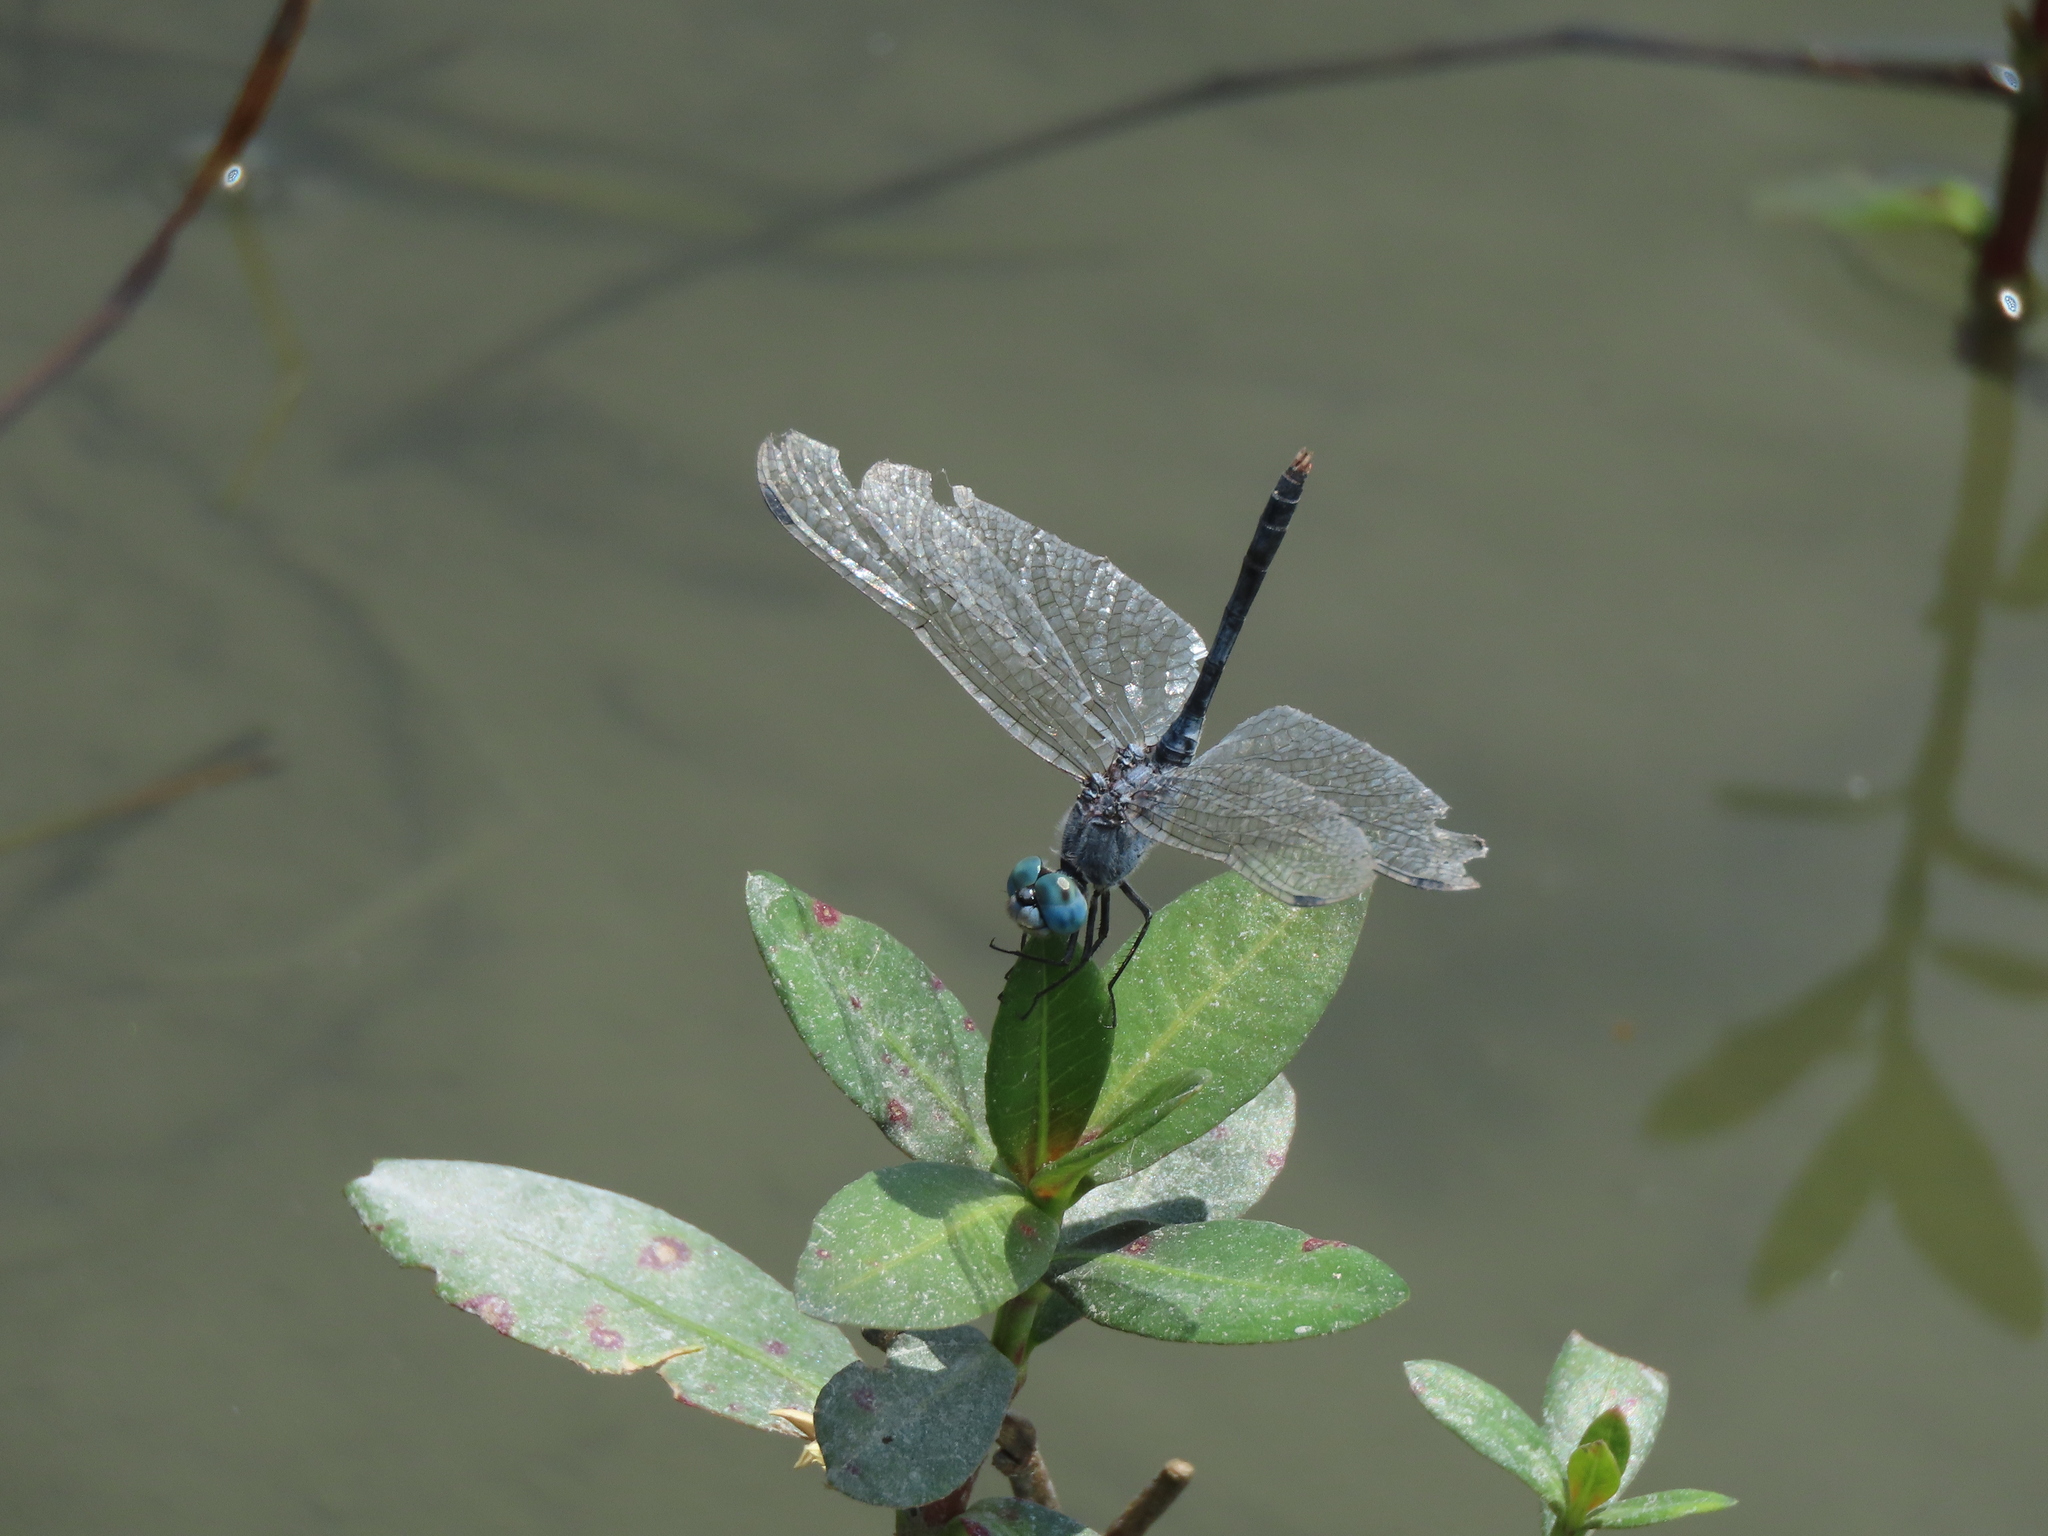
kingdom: Animalia
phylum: Arthropoda
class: Insecta
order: Odonata
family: Libellulidae
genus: Diplacodes
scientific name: Diplacodes trivialis
